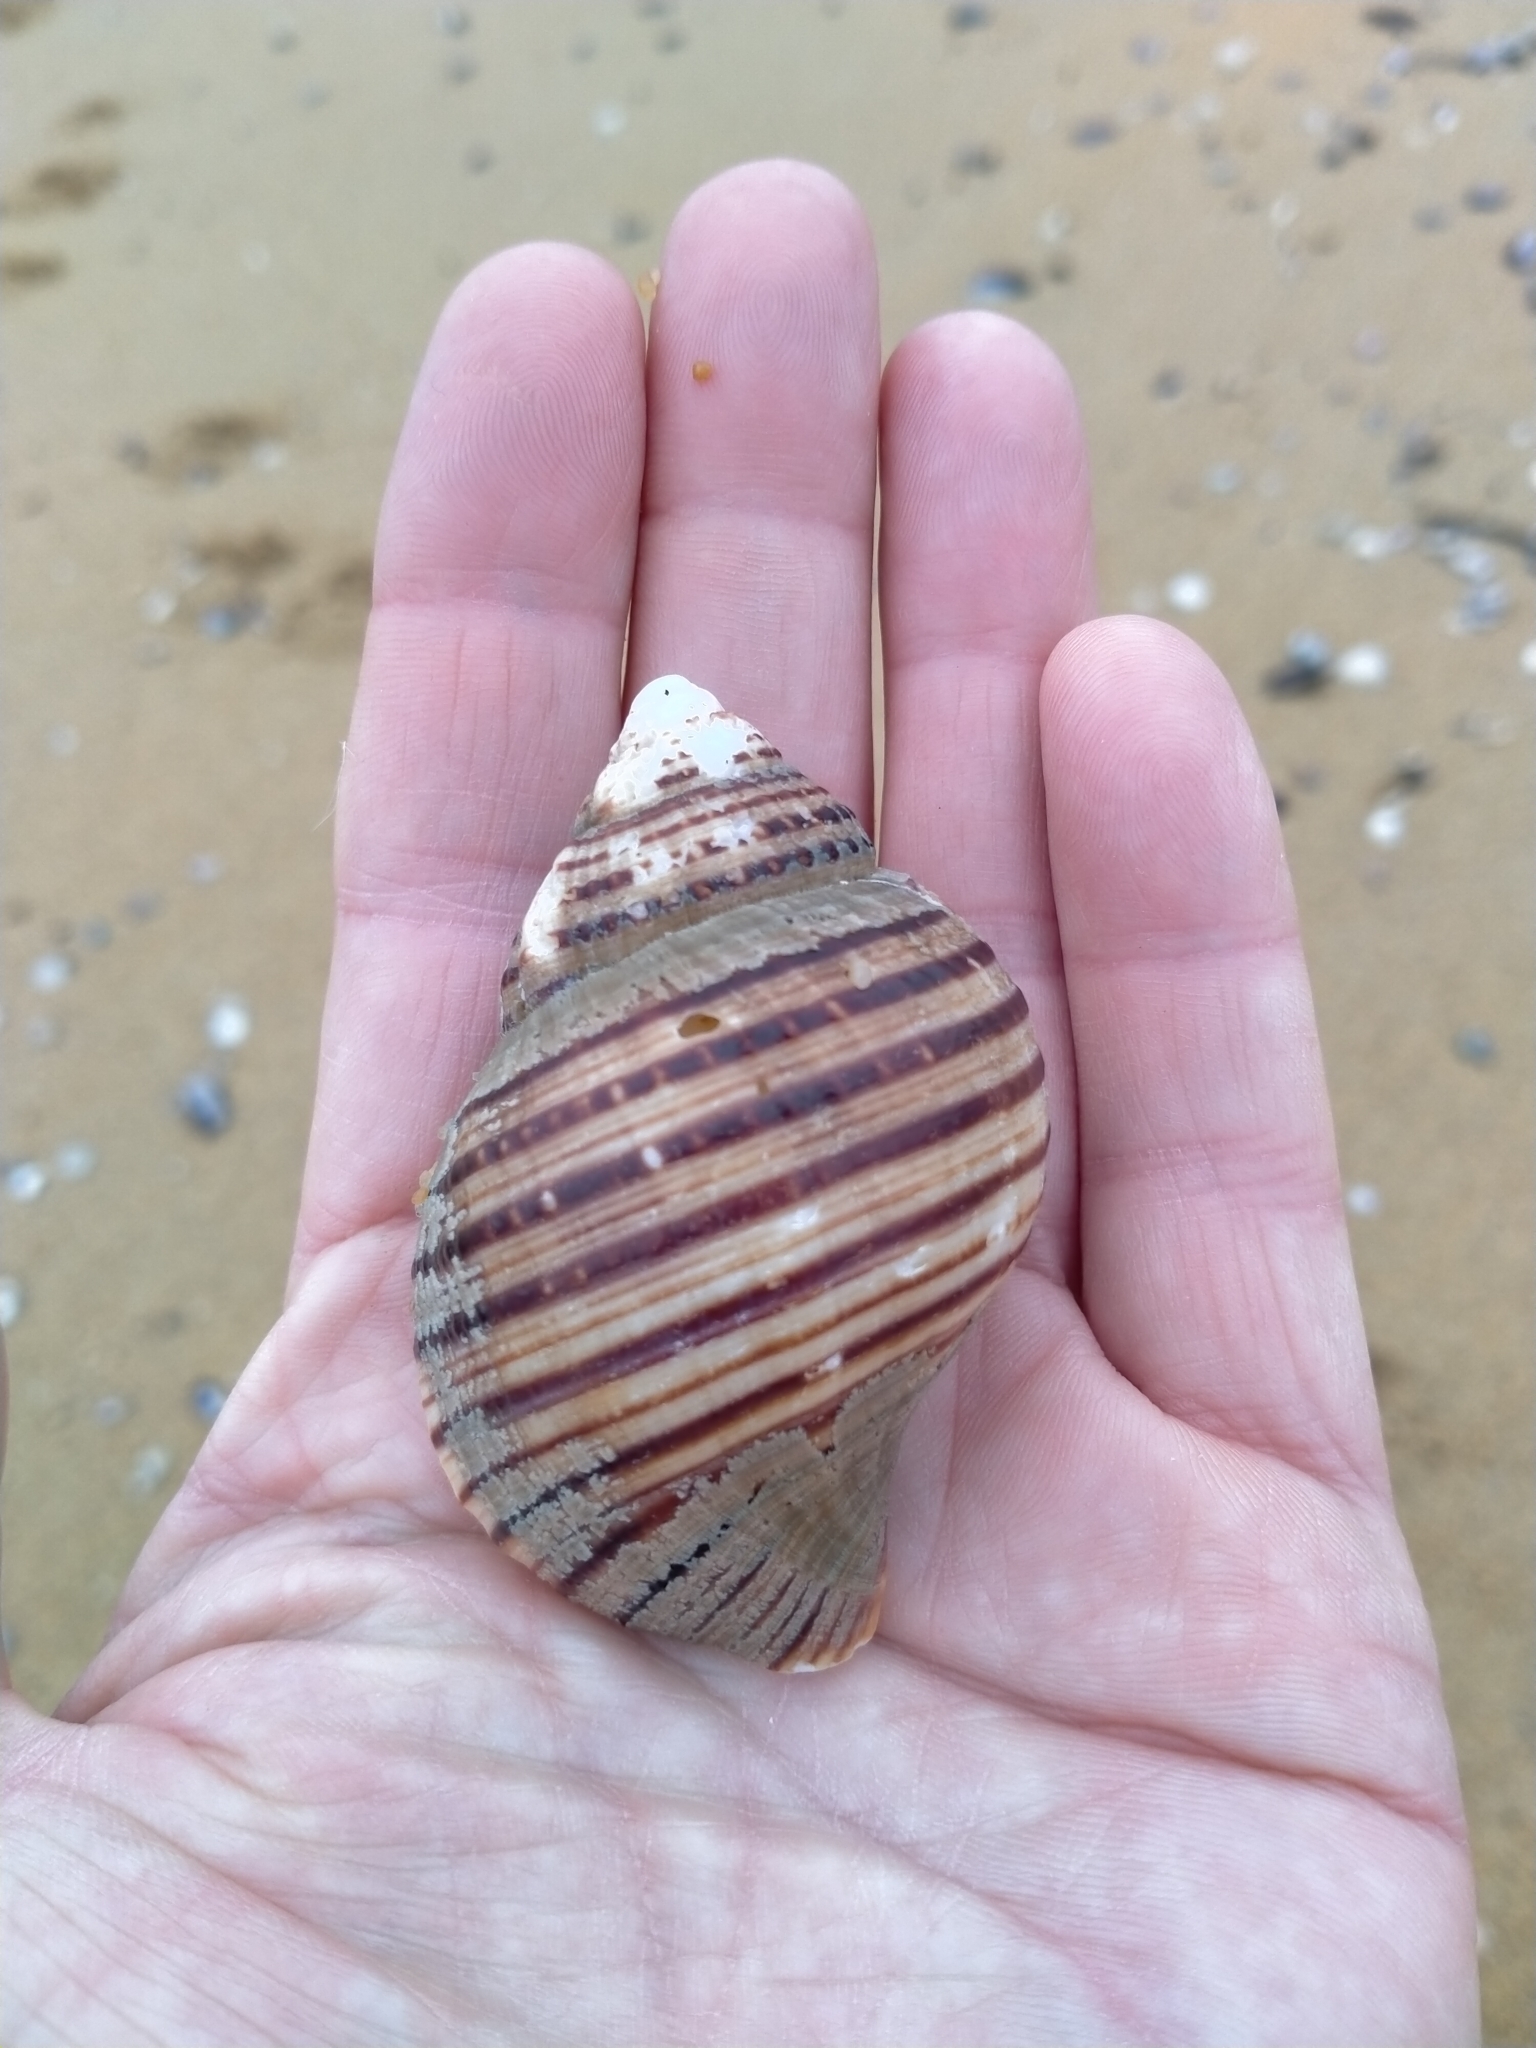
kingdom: Animalia
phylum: Mollusca
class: Gastropoda
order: Littorinimorpha
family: Cymatiidae
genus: Argobuccinum
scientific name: Argobuccinum pustulosum
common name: Pustular triton
